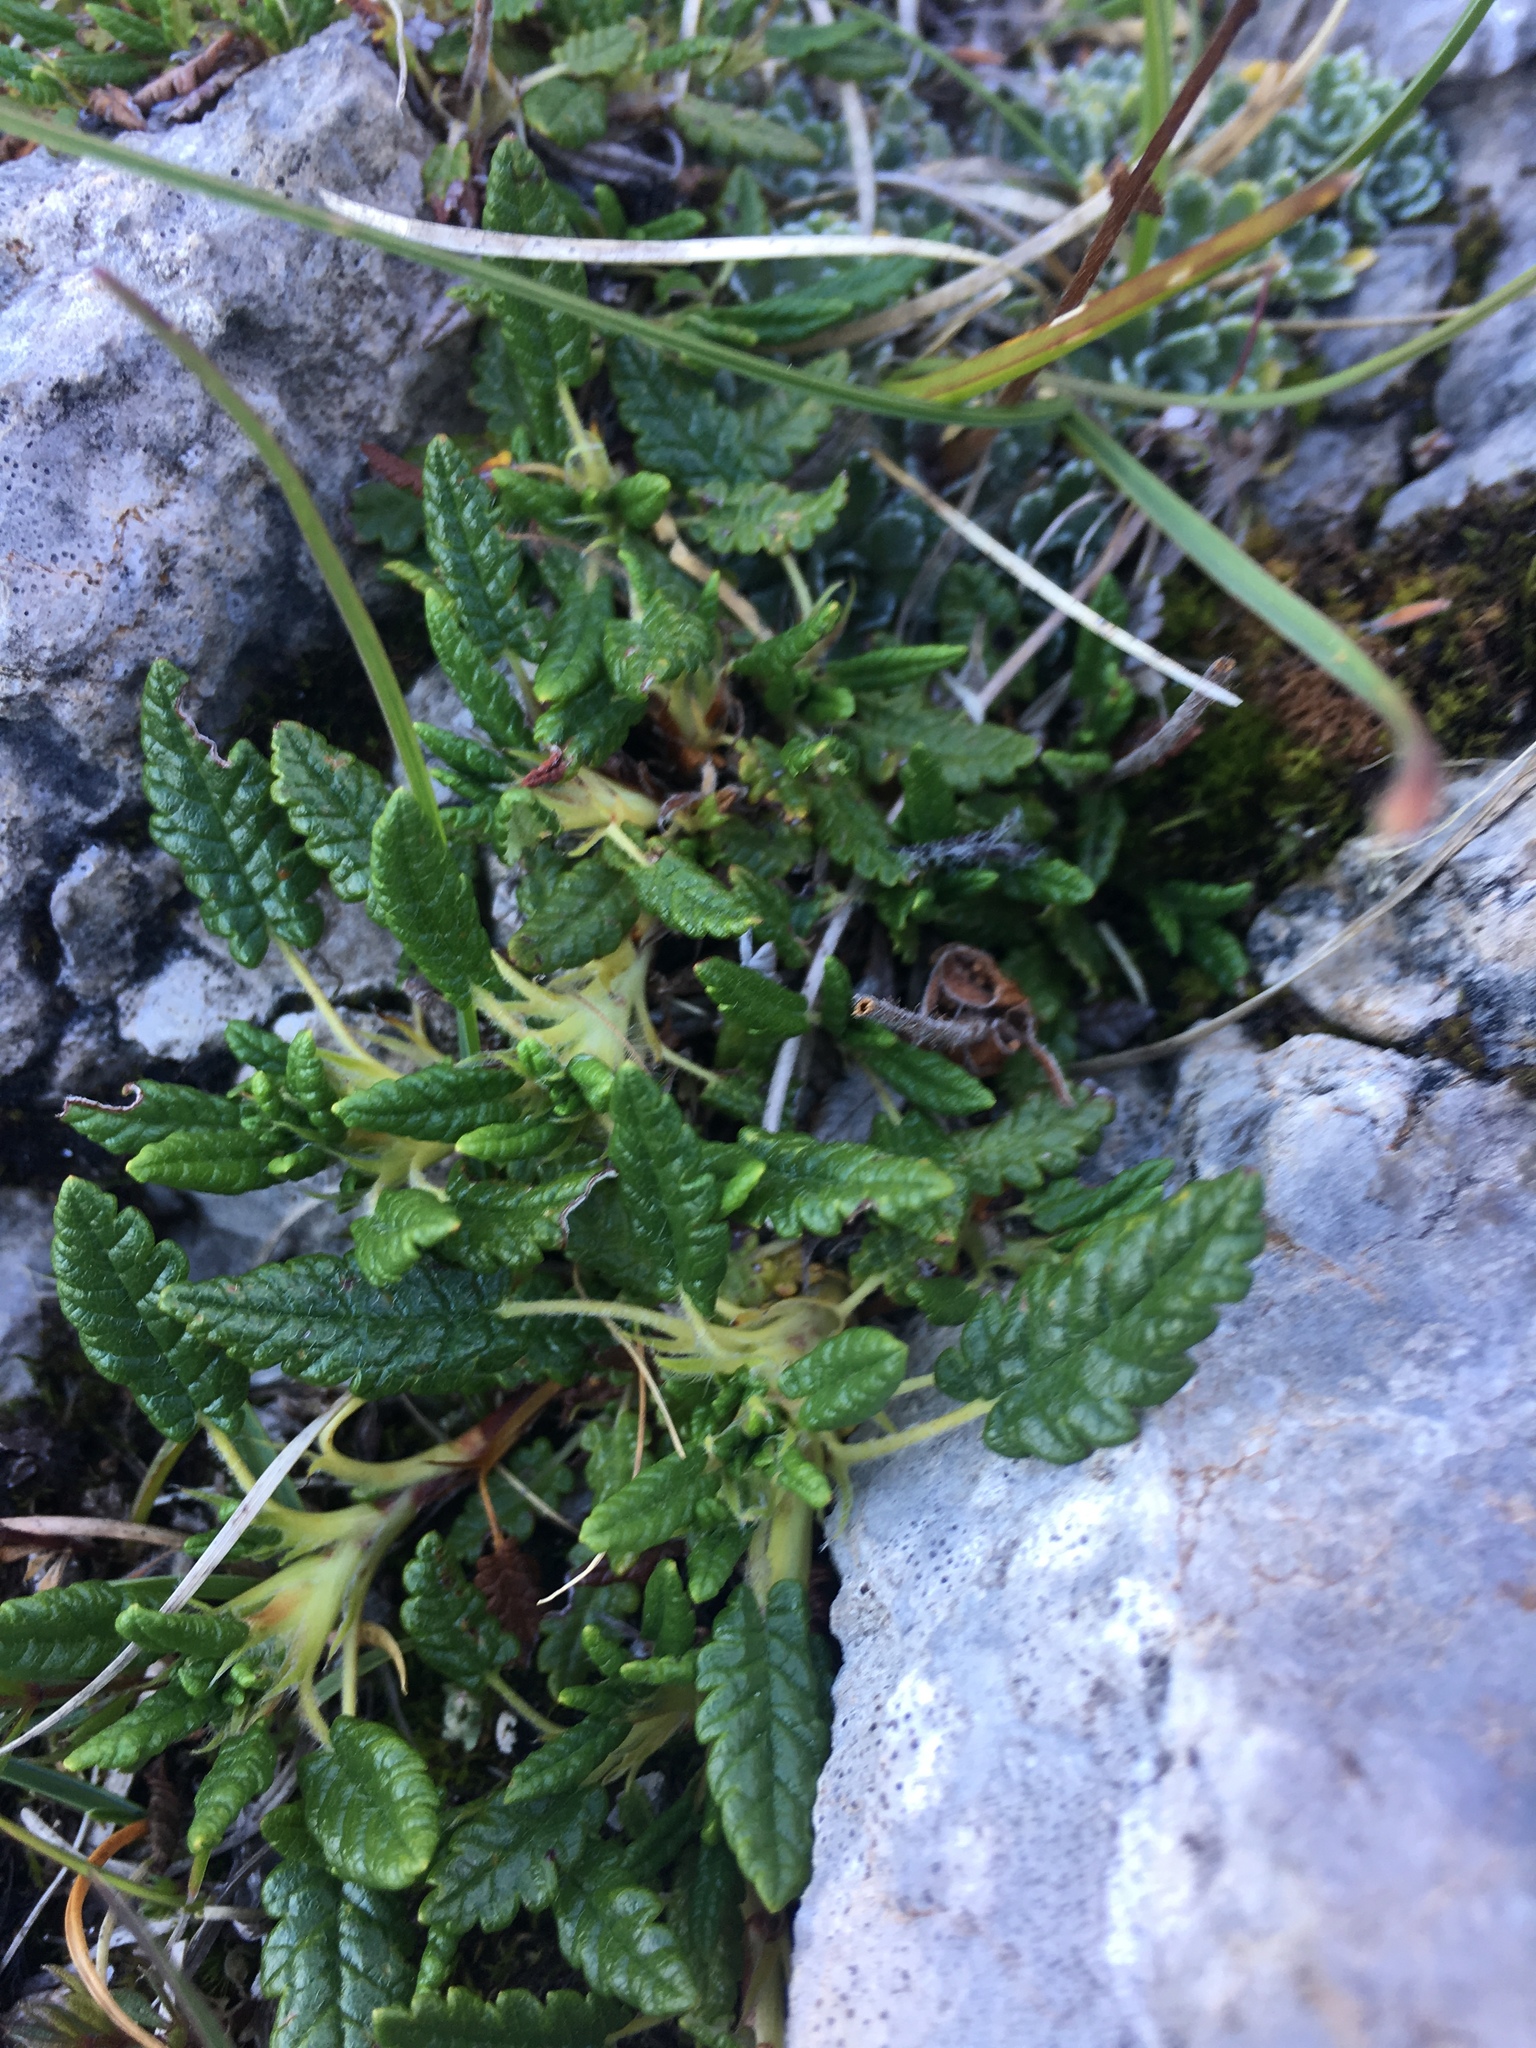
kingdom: Plantae
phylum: Tracheophyta
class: Magnoliopsida
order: Rosales
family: Rosaceae
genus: Dryas
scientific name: Dryas octopetala
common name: Eight-petal mountain-avens
